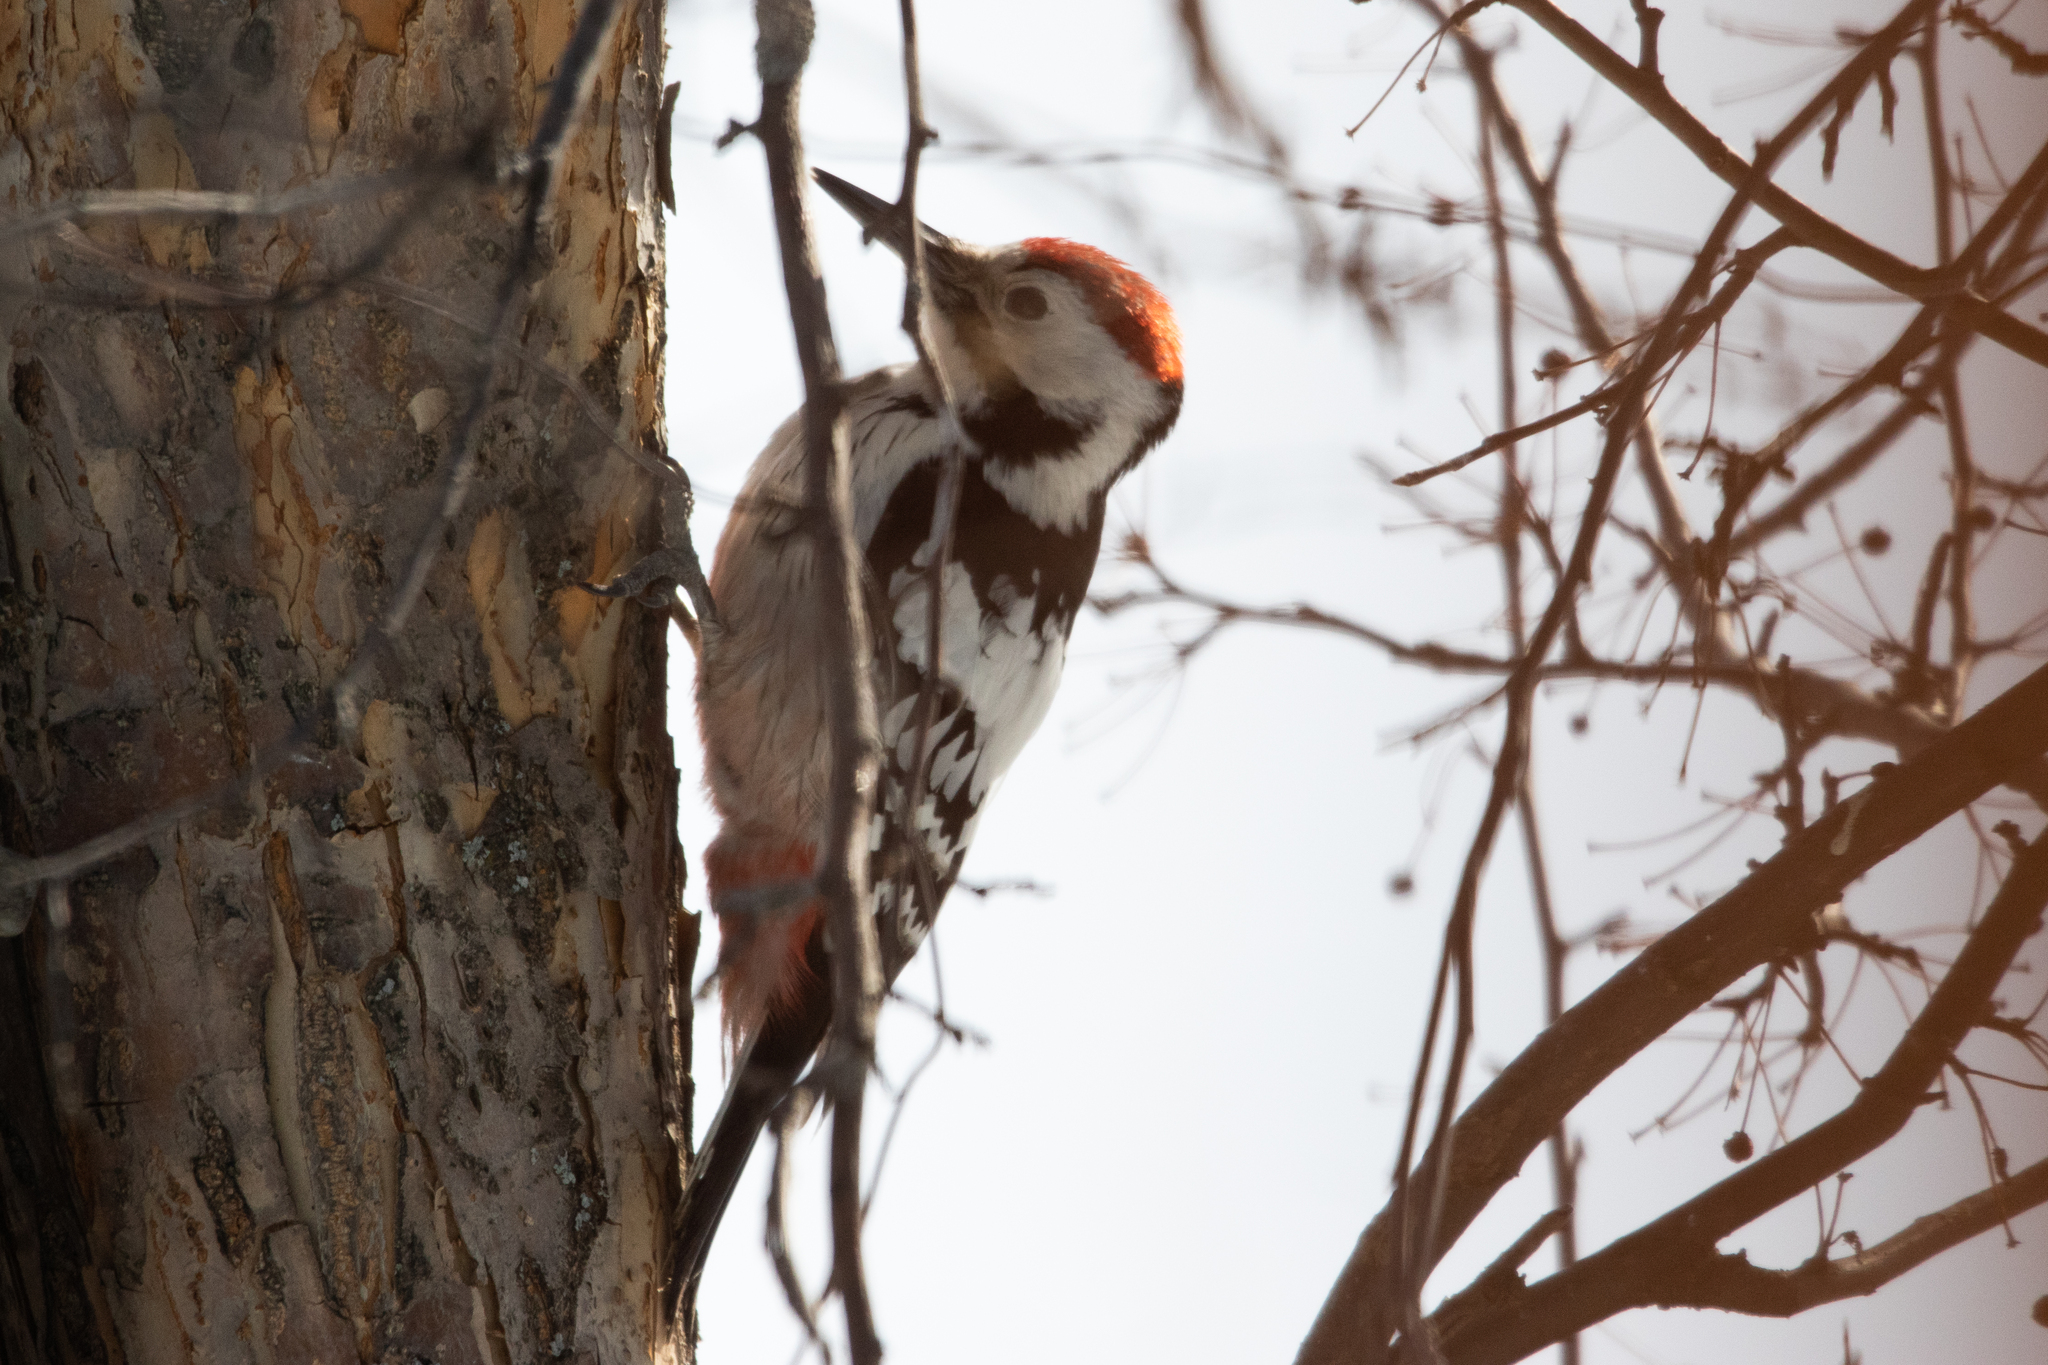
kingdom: Animalia
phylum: Chordata
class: Aves
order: Piciformes
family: Picidae
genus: Dendrocopos
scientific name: Dendrocopos leucotos
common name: White-backed woodpecker
